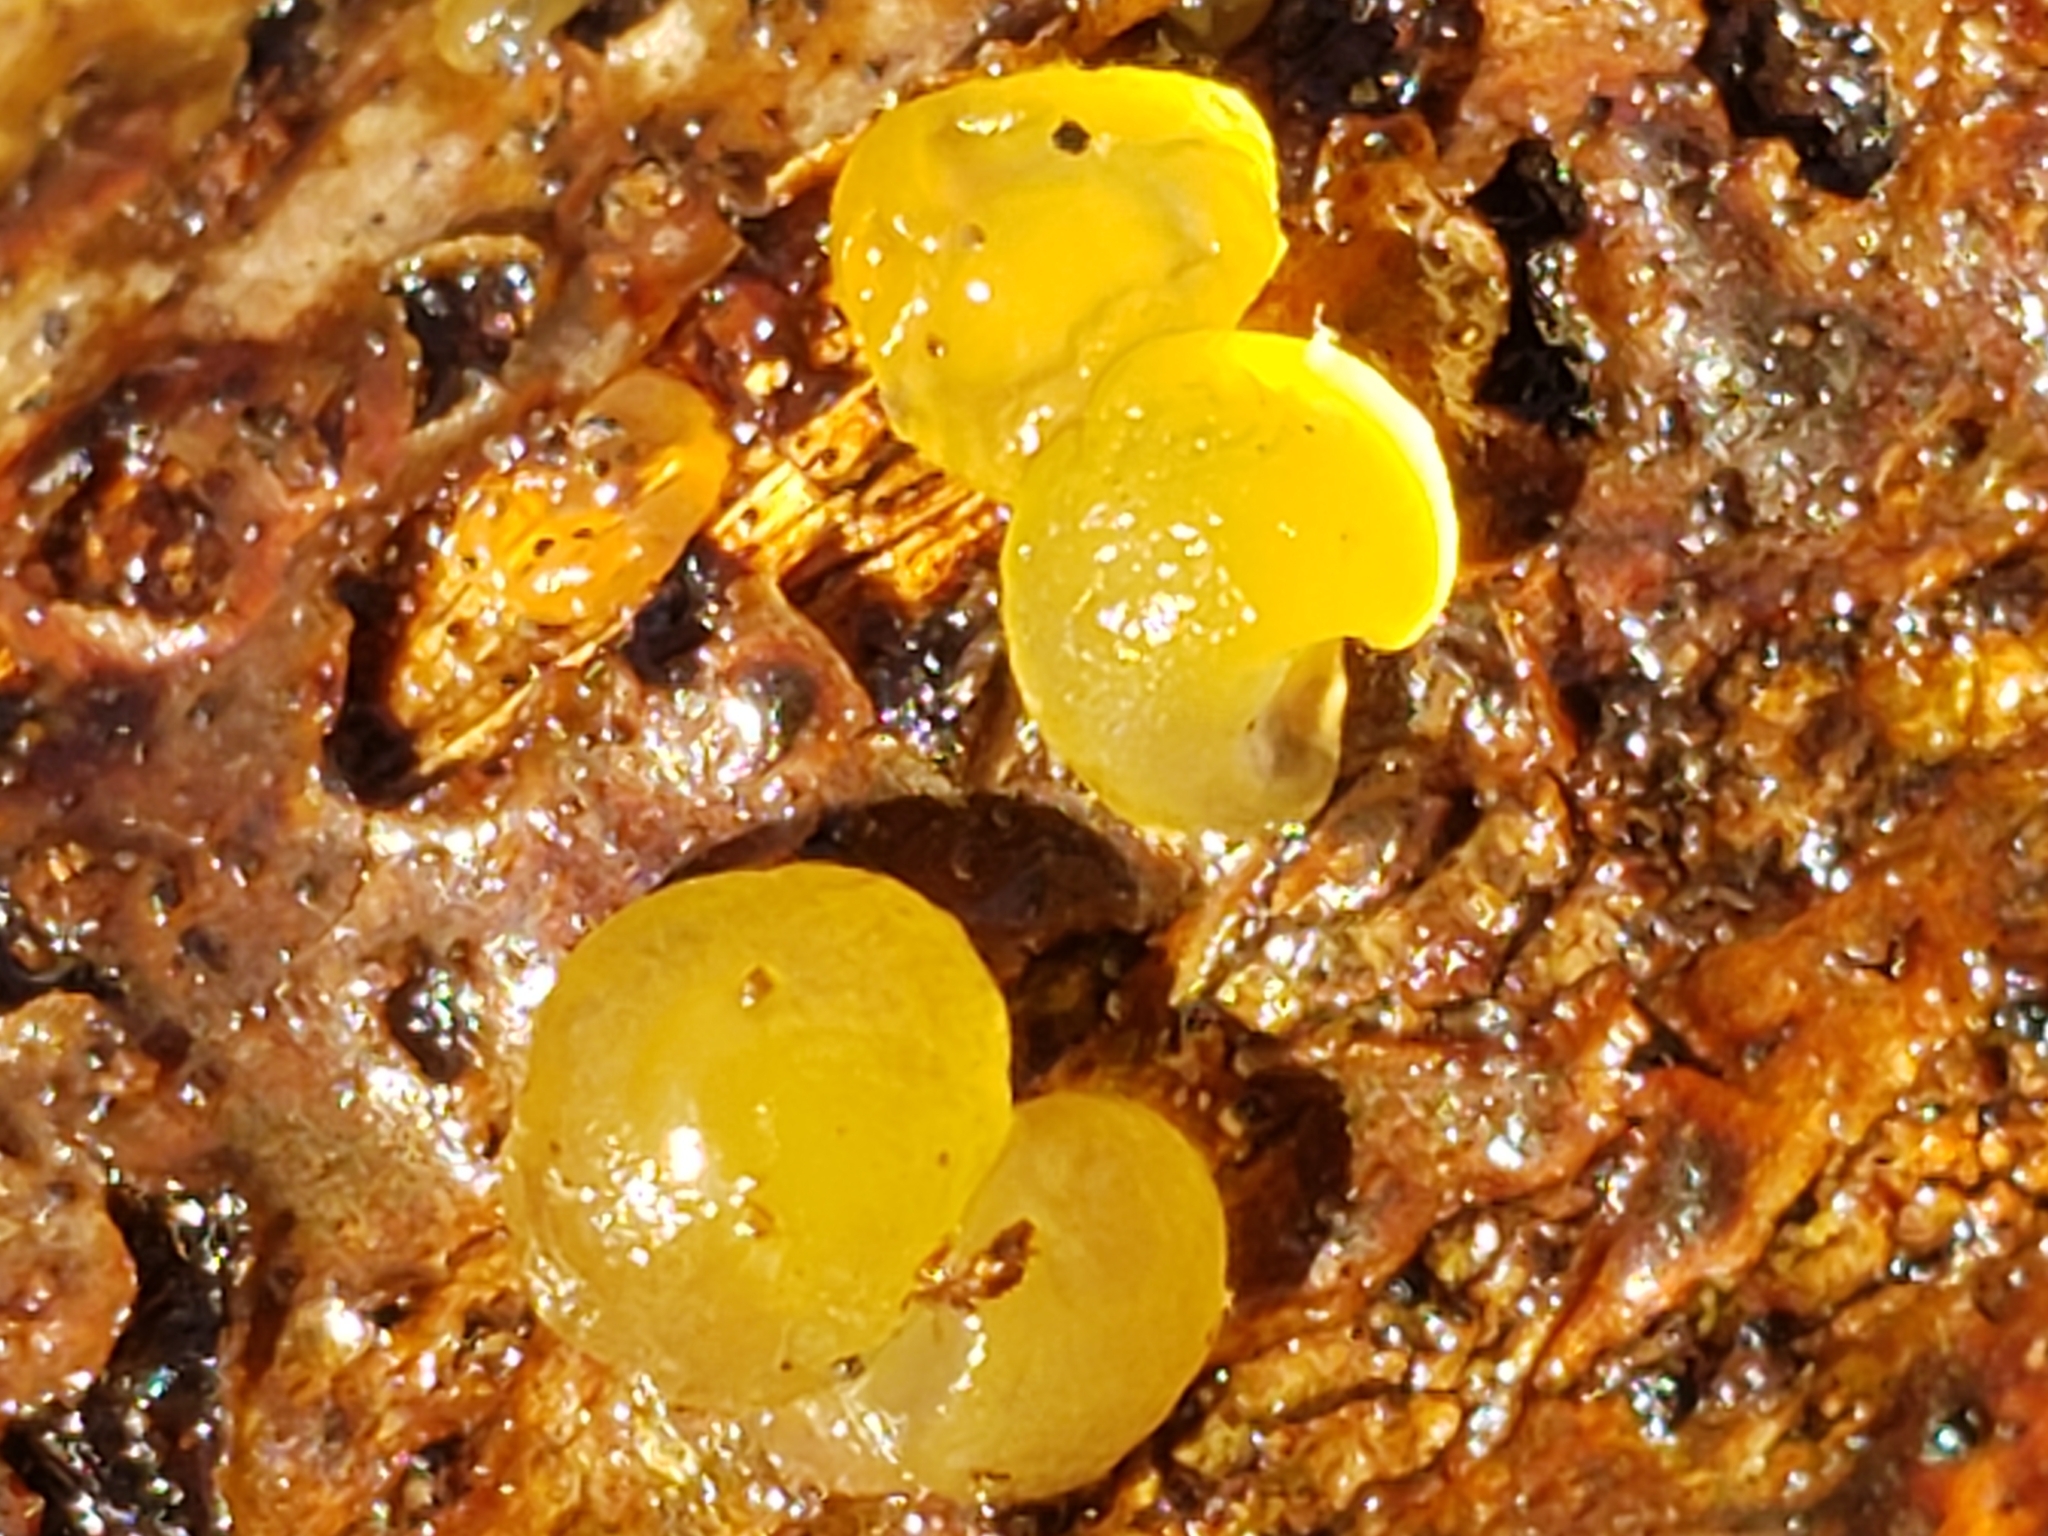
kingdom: Fungi
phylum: Basidiomycota
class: Dacrymycetes
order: Dacrymycetales
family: Dacrymycetaceae
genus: Dacrymyces
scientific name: Dacrymyces stillatus
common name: Common jelly spot
